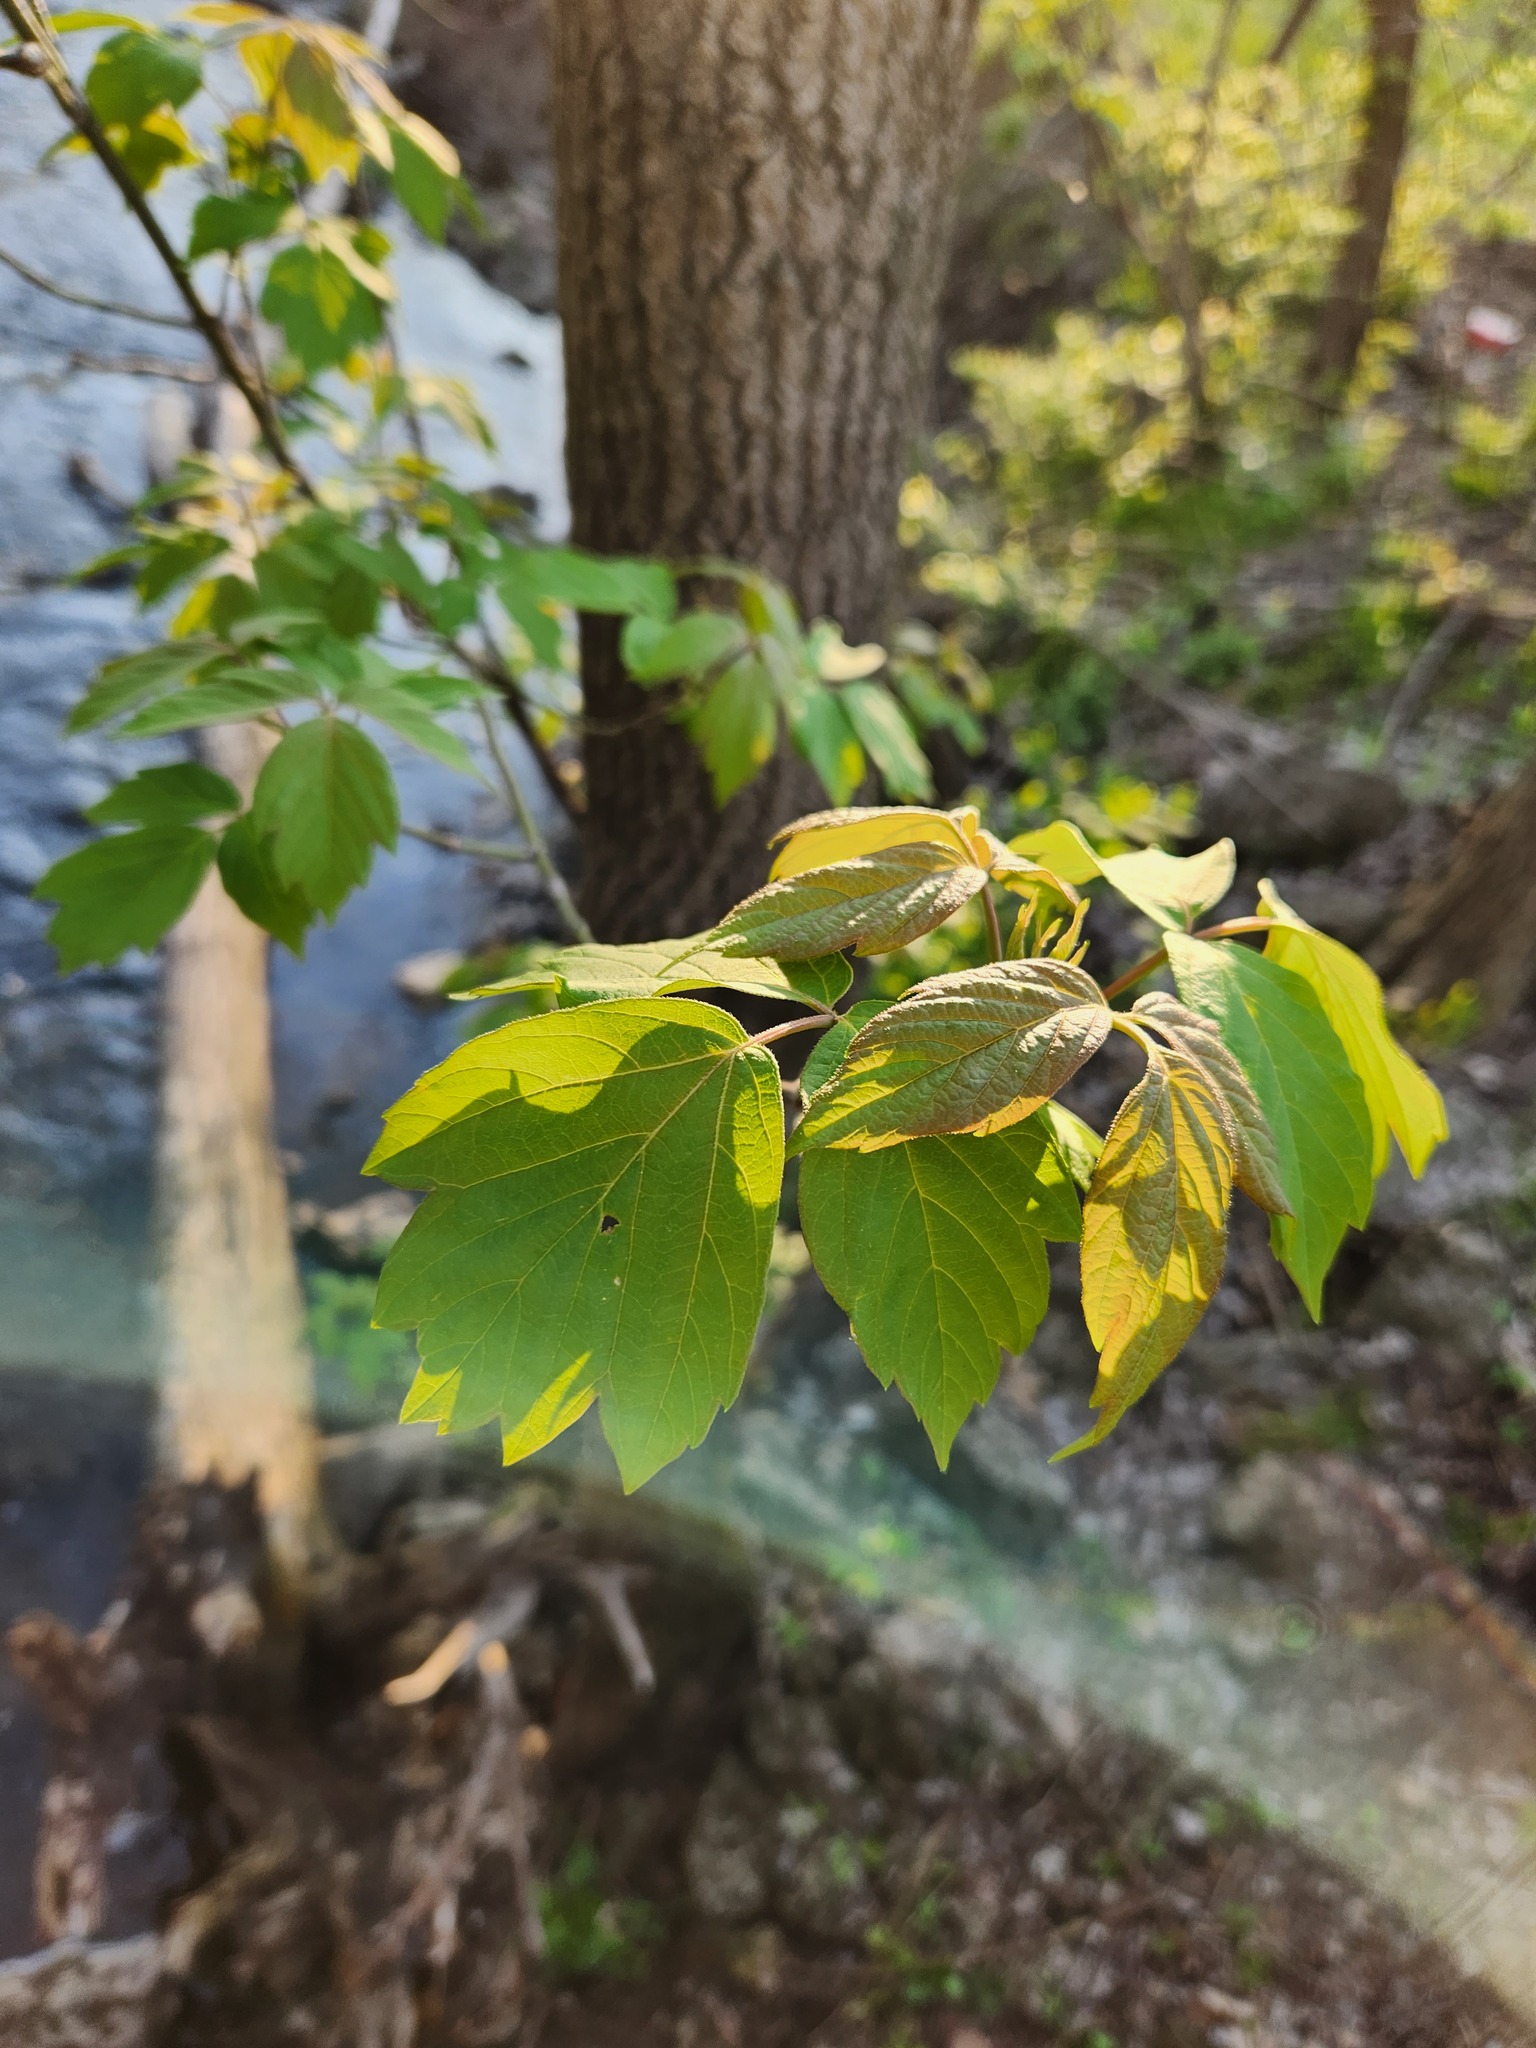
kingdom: Plantae
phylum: Tracheophyta
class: Magnoliopsida
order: Sapindales
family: Sapindaceae
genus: Acer
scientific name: Acer negundo
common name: Ashleaf maple
